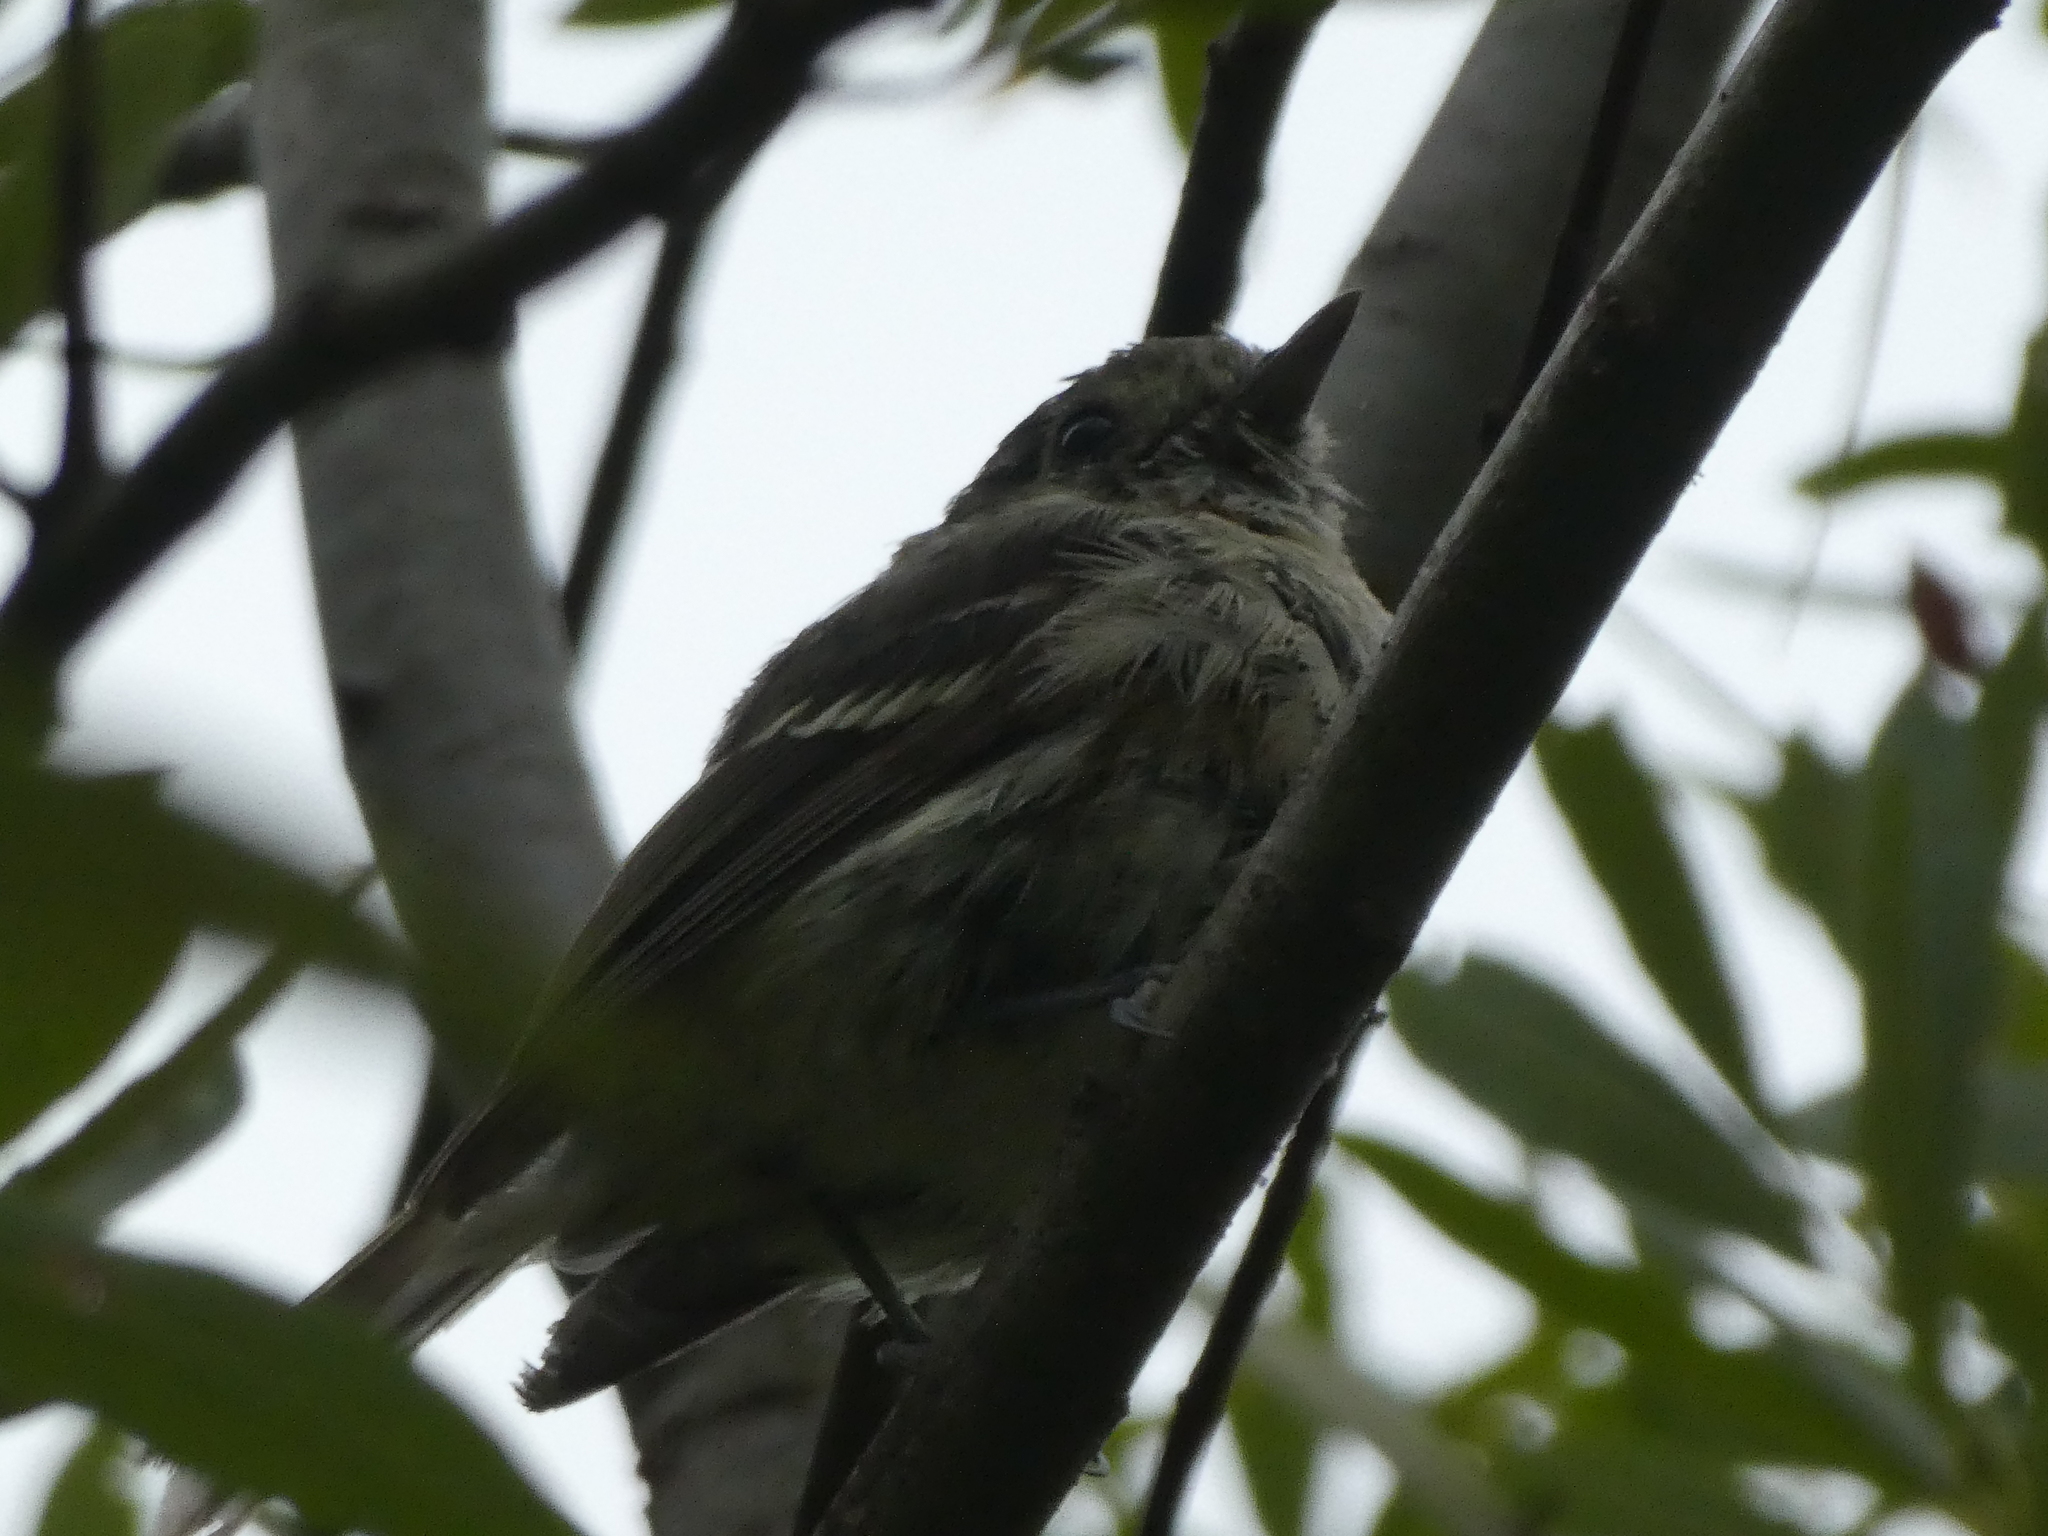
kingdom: Animalia
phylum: Chordata
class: Aves
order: Passeriformes
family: Vireonidae
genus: Vireo
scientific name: Vireo huttoni
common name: Hutton's vireo
